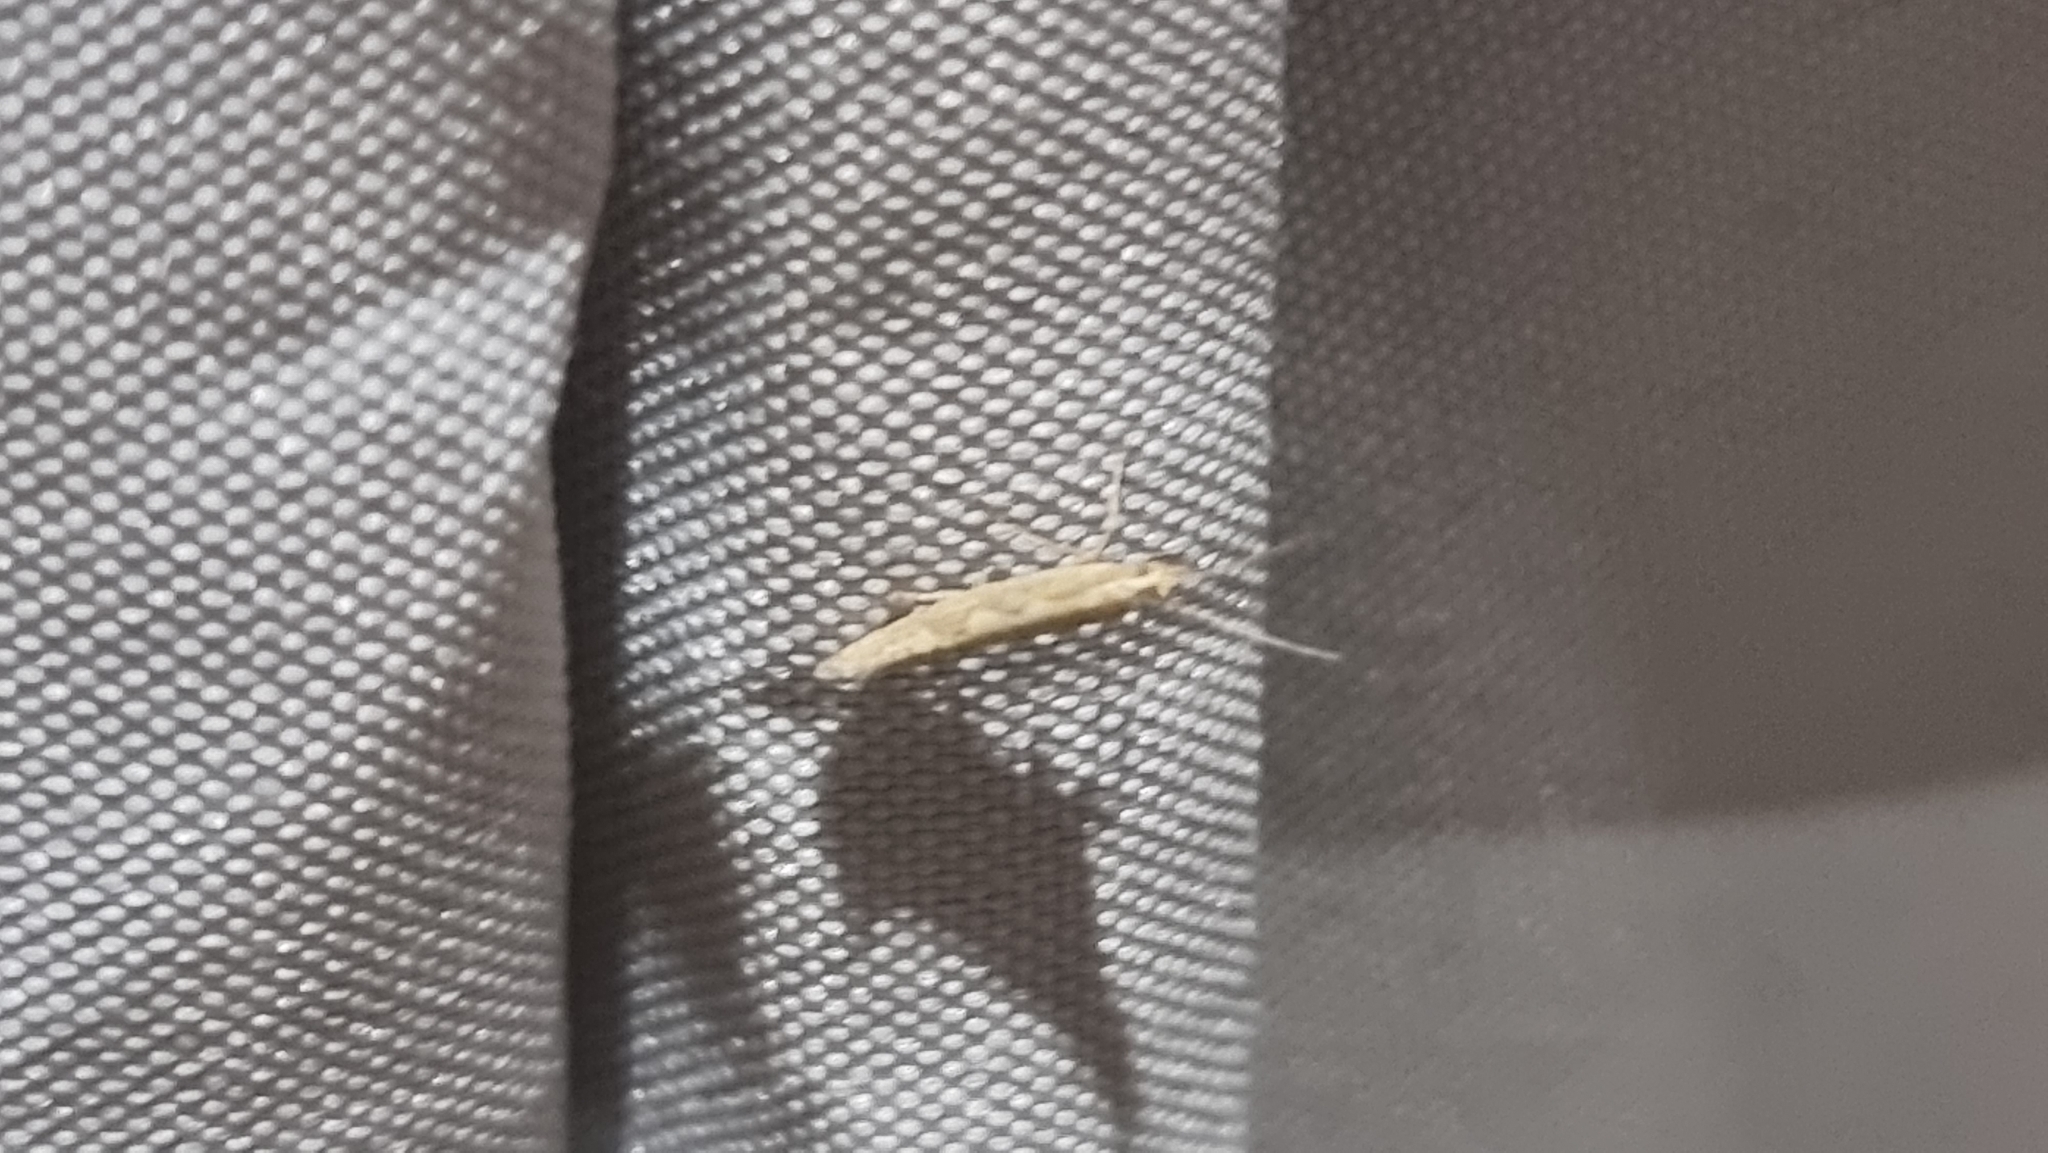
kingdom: Animalia
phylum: Arthropoda
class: Insecta
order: Lepidoptera
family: Plutellidae
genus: Plutella
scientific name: Plutella xylostella
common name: Diamond-back moth
